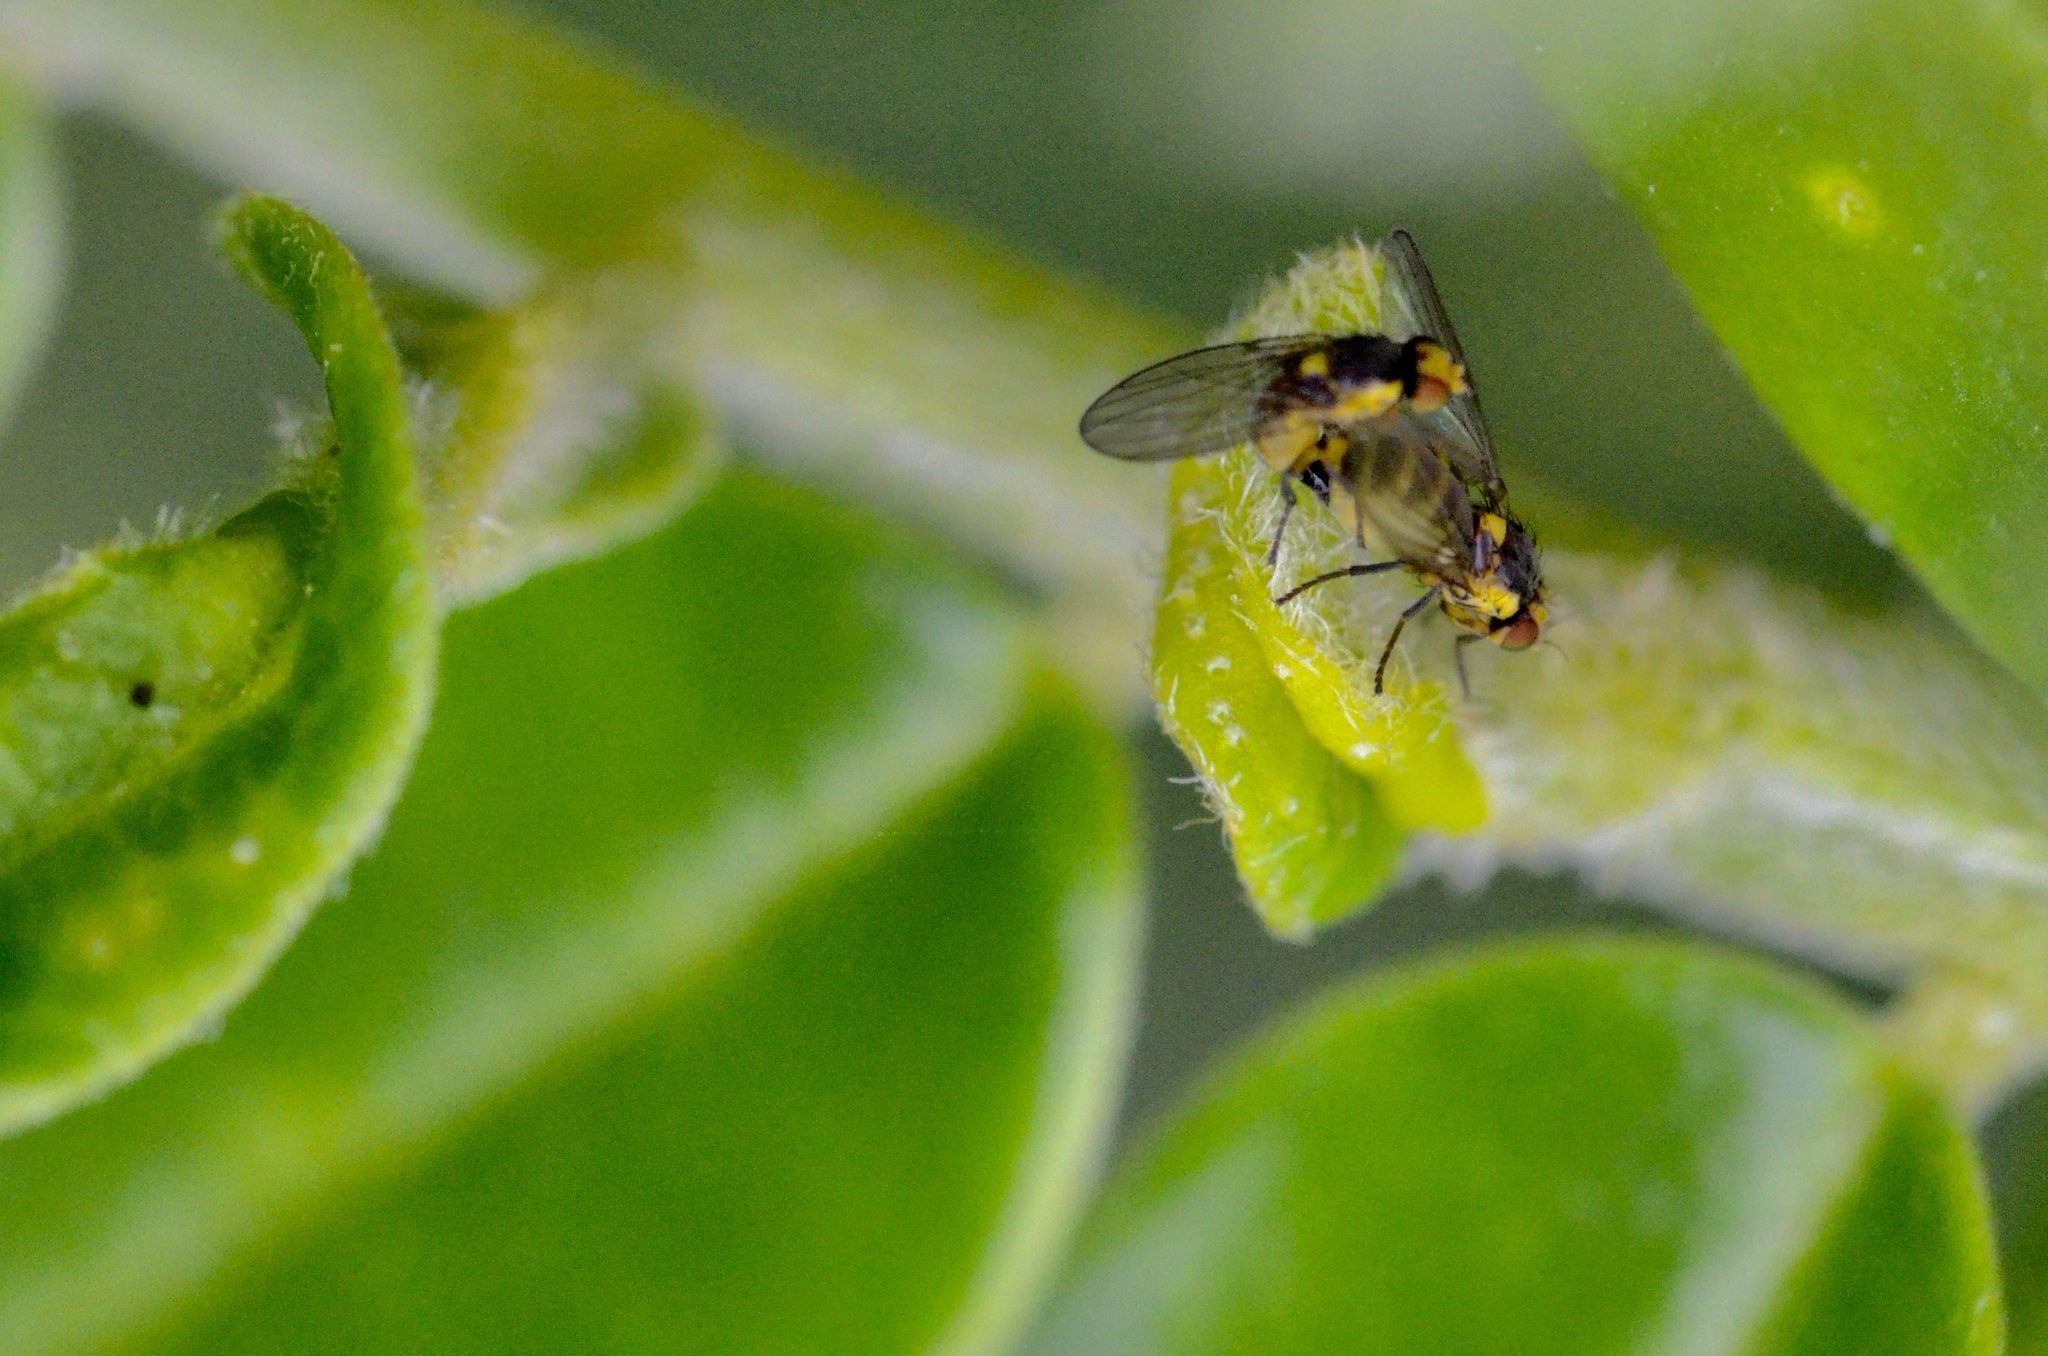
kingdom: Animalia
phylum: Arthropoda
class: Insecta
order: Diptera
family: Agromyzidae
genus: Liriomyza
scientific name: Liriomyza clianthi
